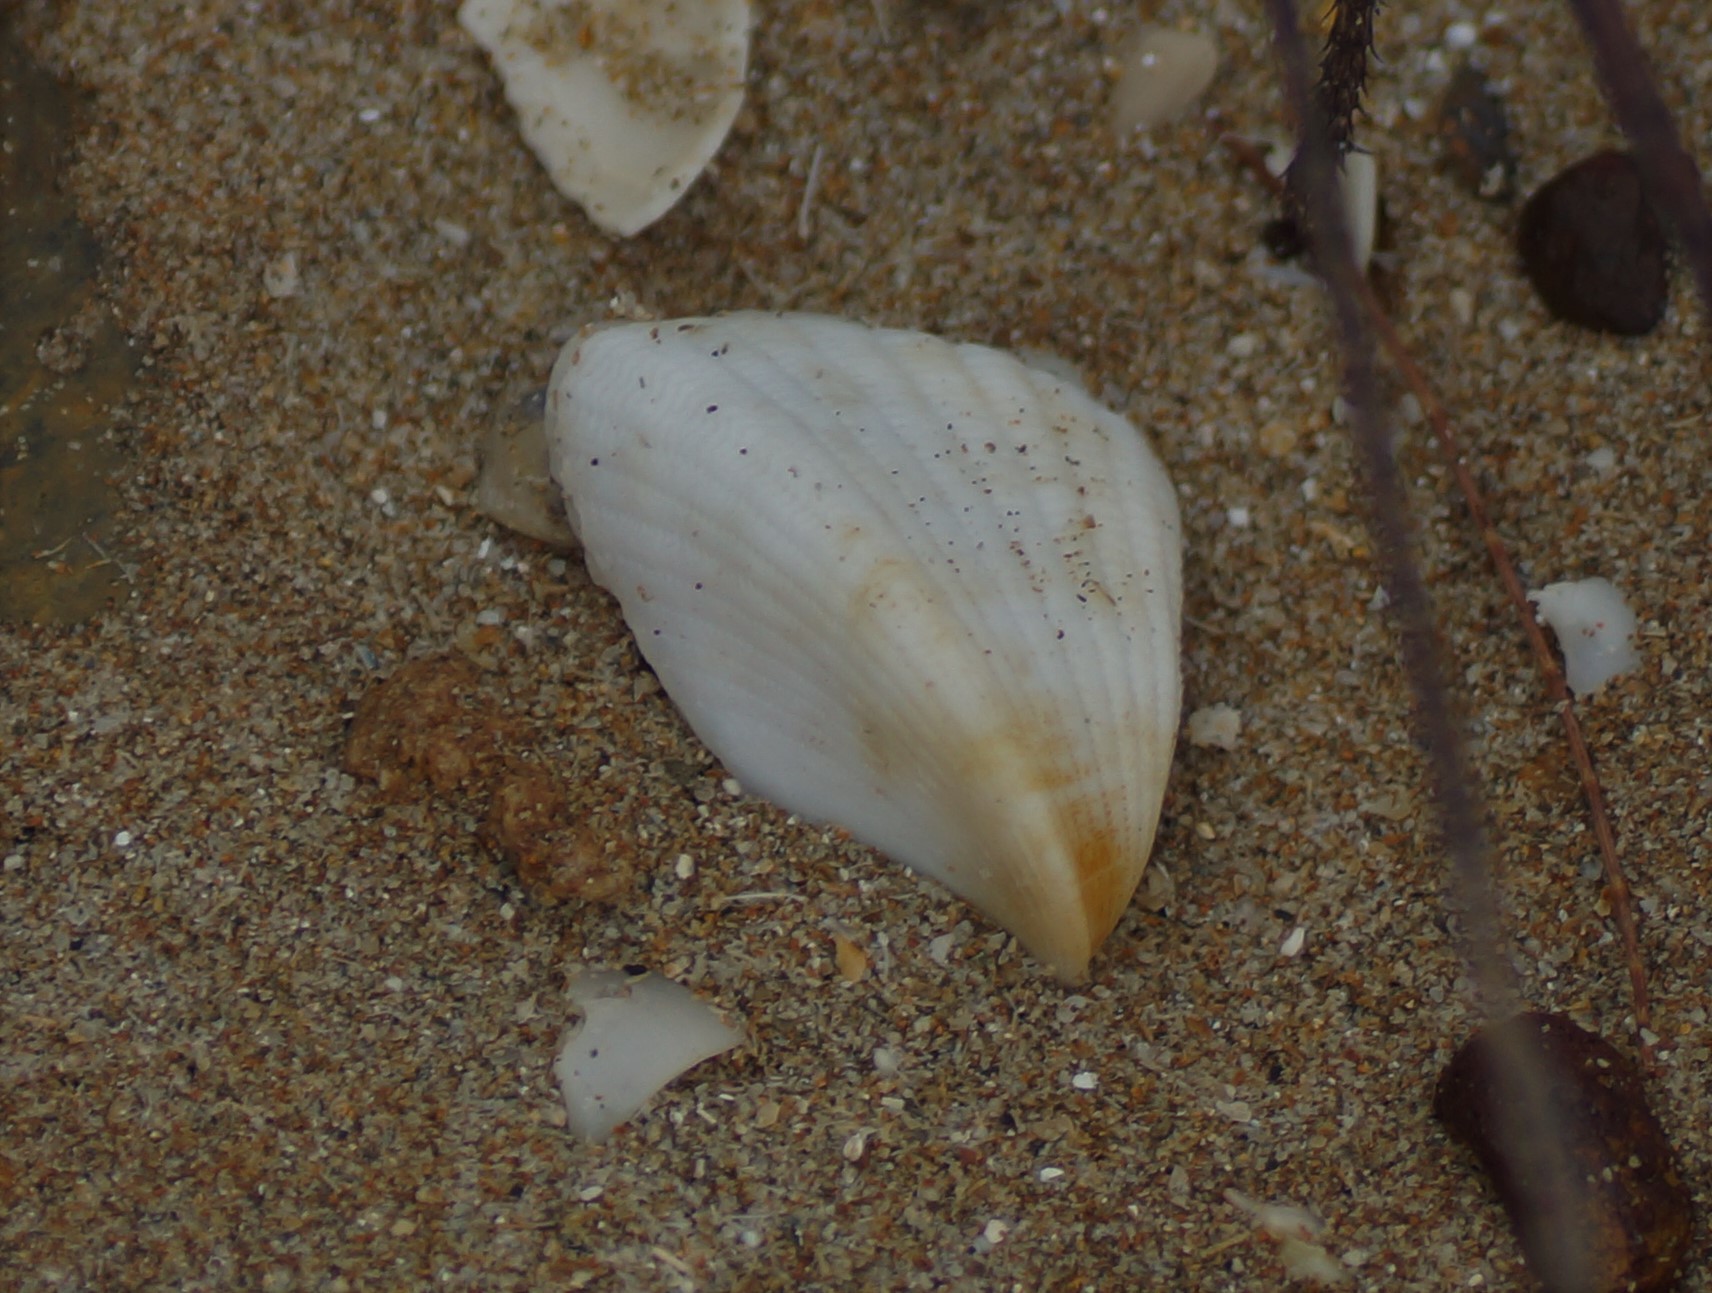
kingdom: Animalia
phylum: Mollusca
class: Bivalvia
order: Cardiida
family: Cardiidae
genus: Lunulicardia
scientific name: Lunulicardia hemicardium
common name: Half heart cockle
